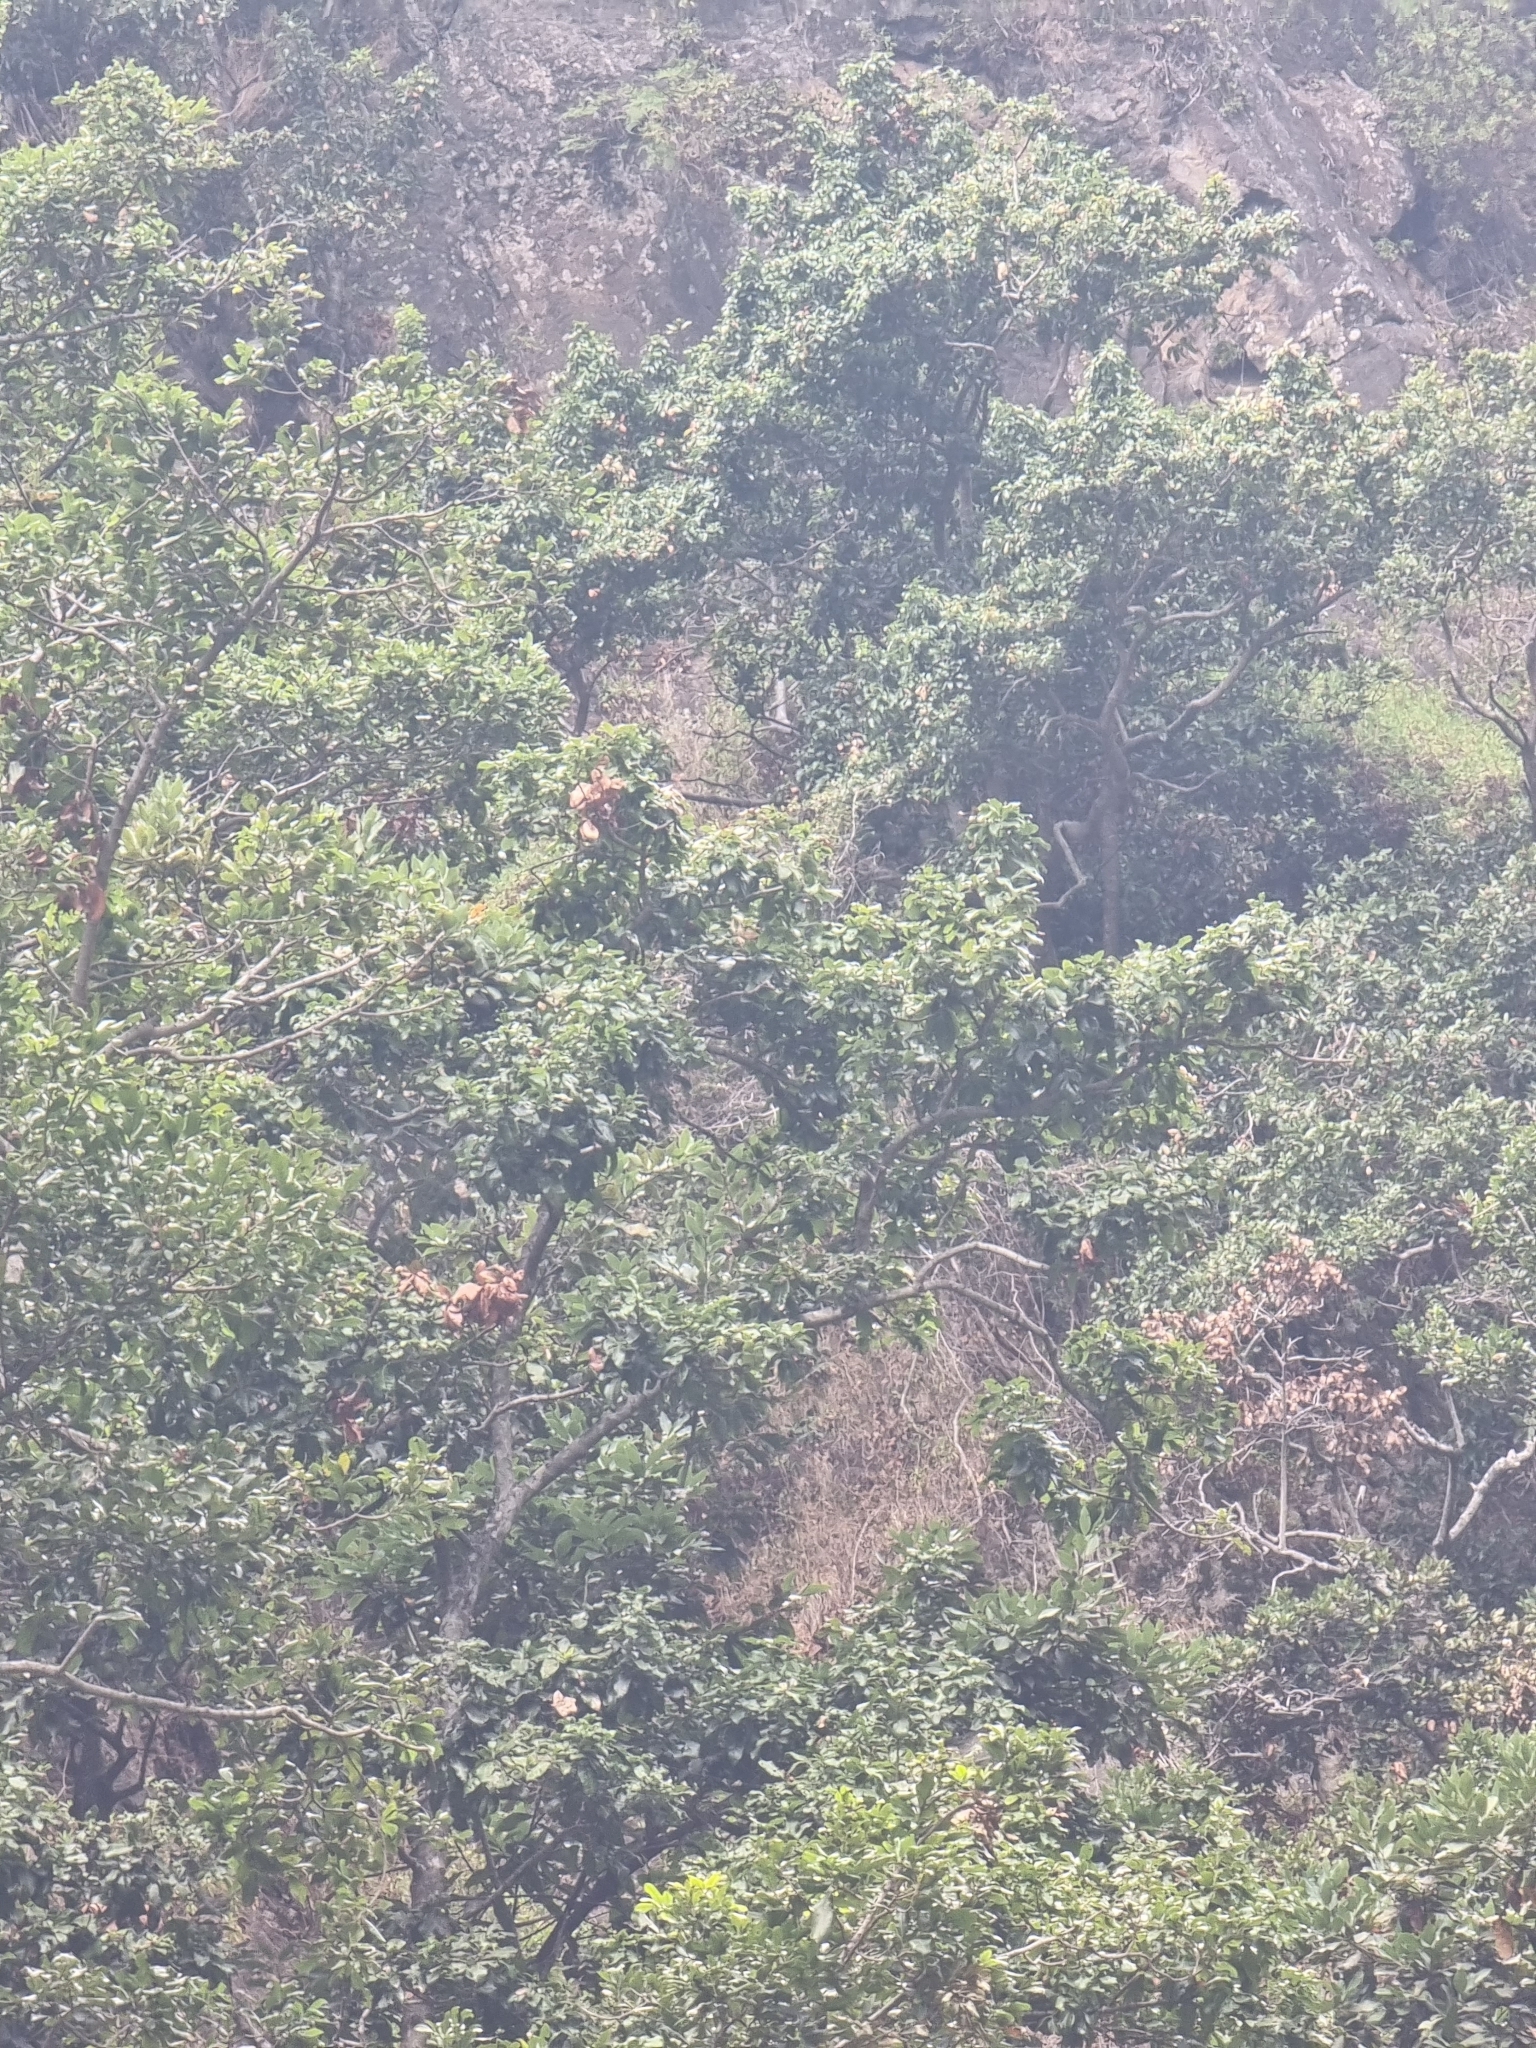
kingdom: Plantae
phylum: Tracheophyta
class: Magnoliopsida
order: Laurales
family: Lauraceae
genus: Laurus
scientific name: Laurus novocanariensis
